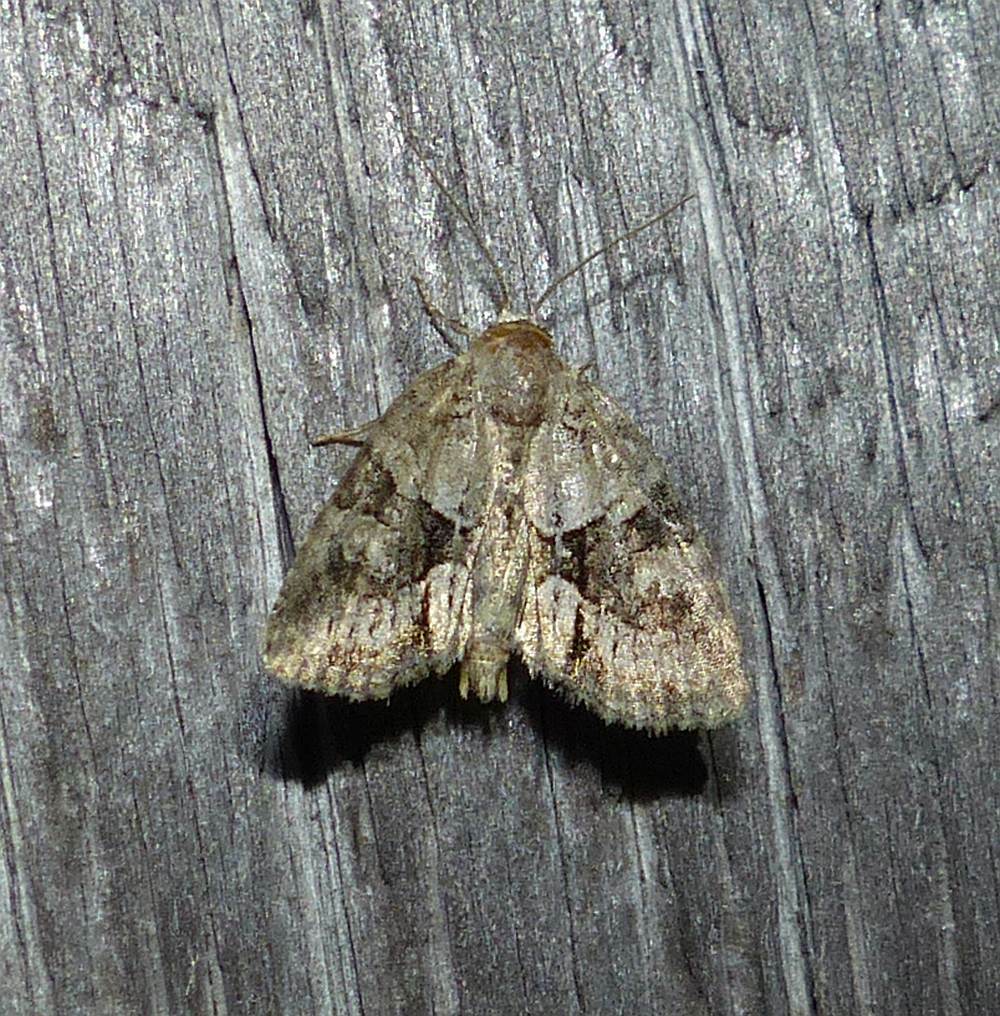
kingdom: Animalia
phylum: Arthropoda
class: Insecta
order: Lepidoptera
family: Noctuidae
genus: Neoligia
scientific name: Neoligia exhausta
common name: Exhausted brocade
